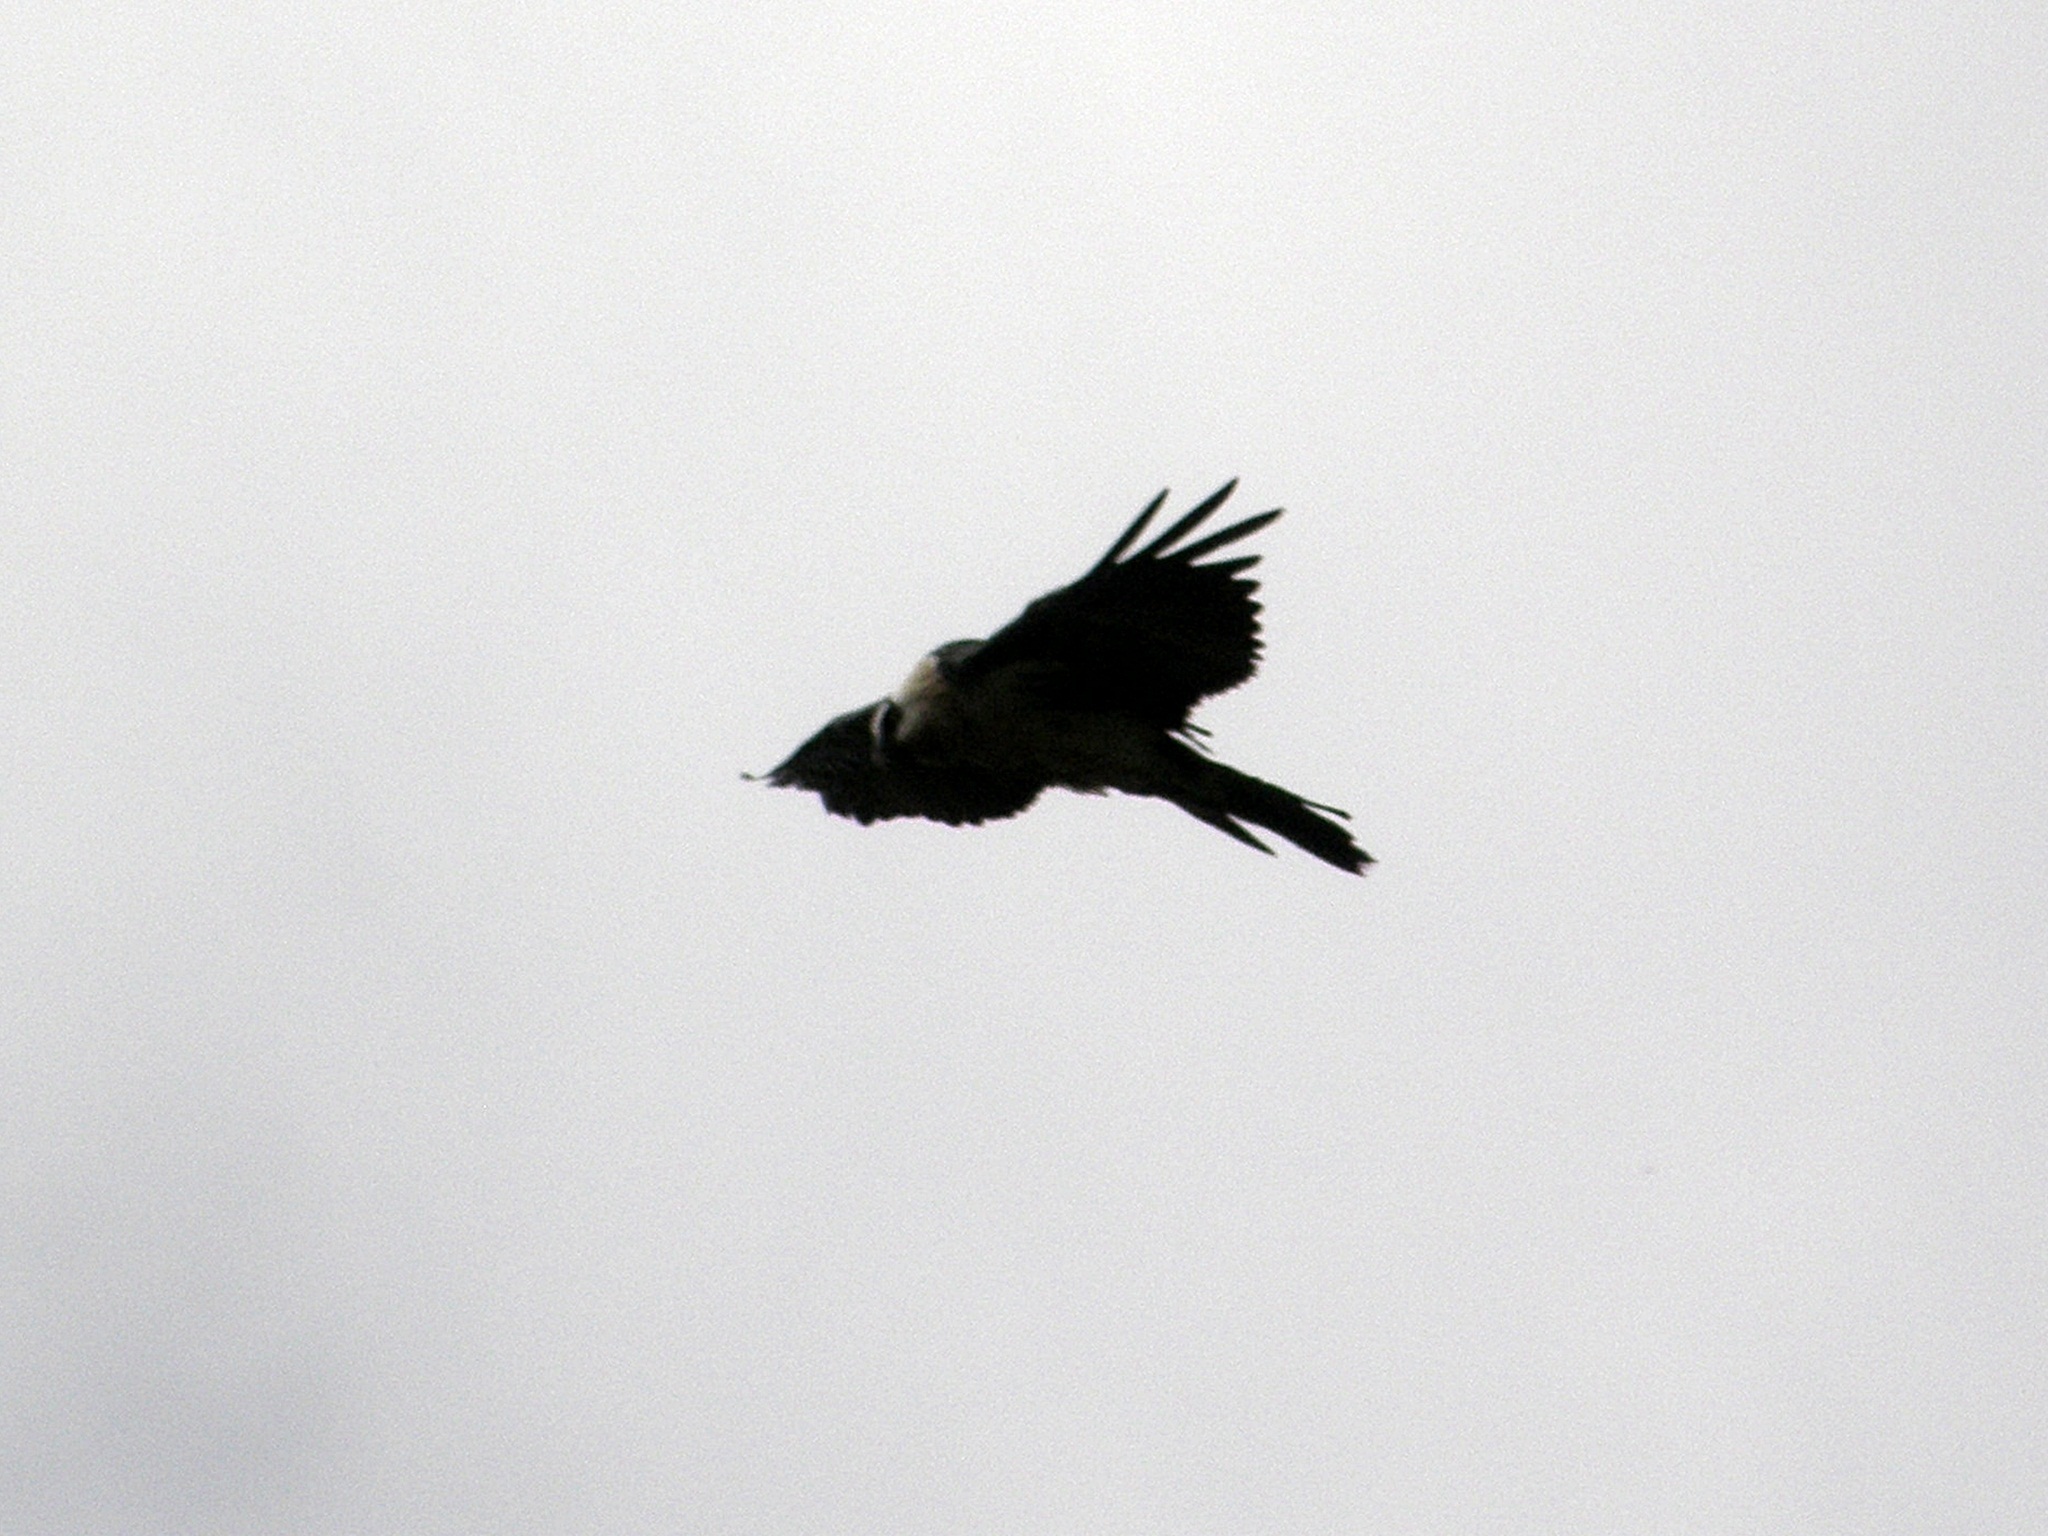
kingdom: Animalia
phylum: Chordata
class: Aves
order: Accipitriformes
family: Accipitridae
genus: Gypaetus
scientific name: Gypaetus barbatus
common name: Bearded vulture
